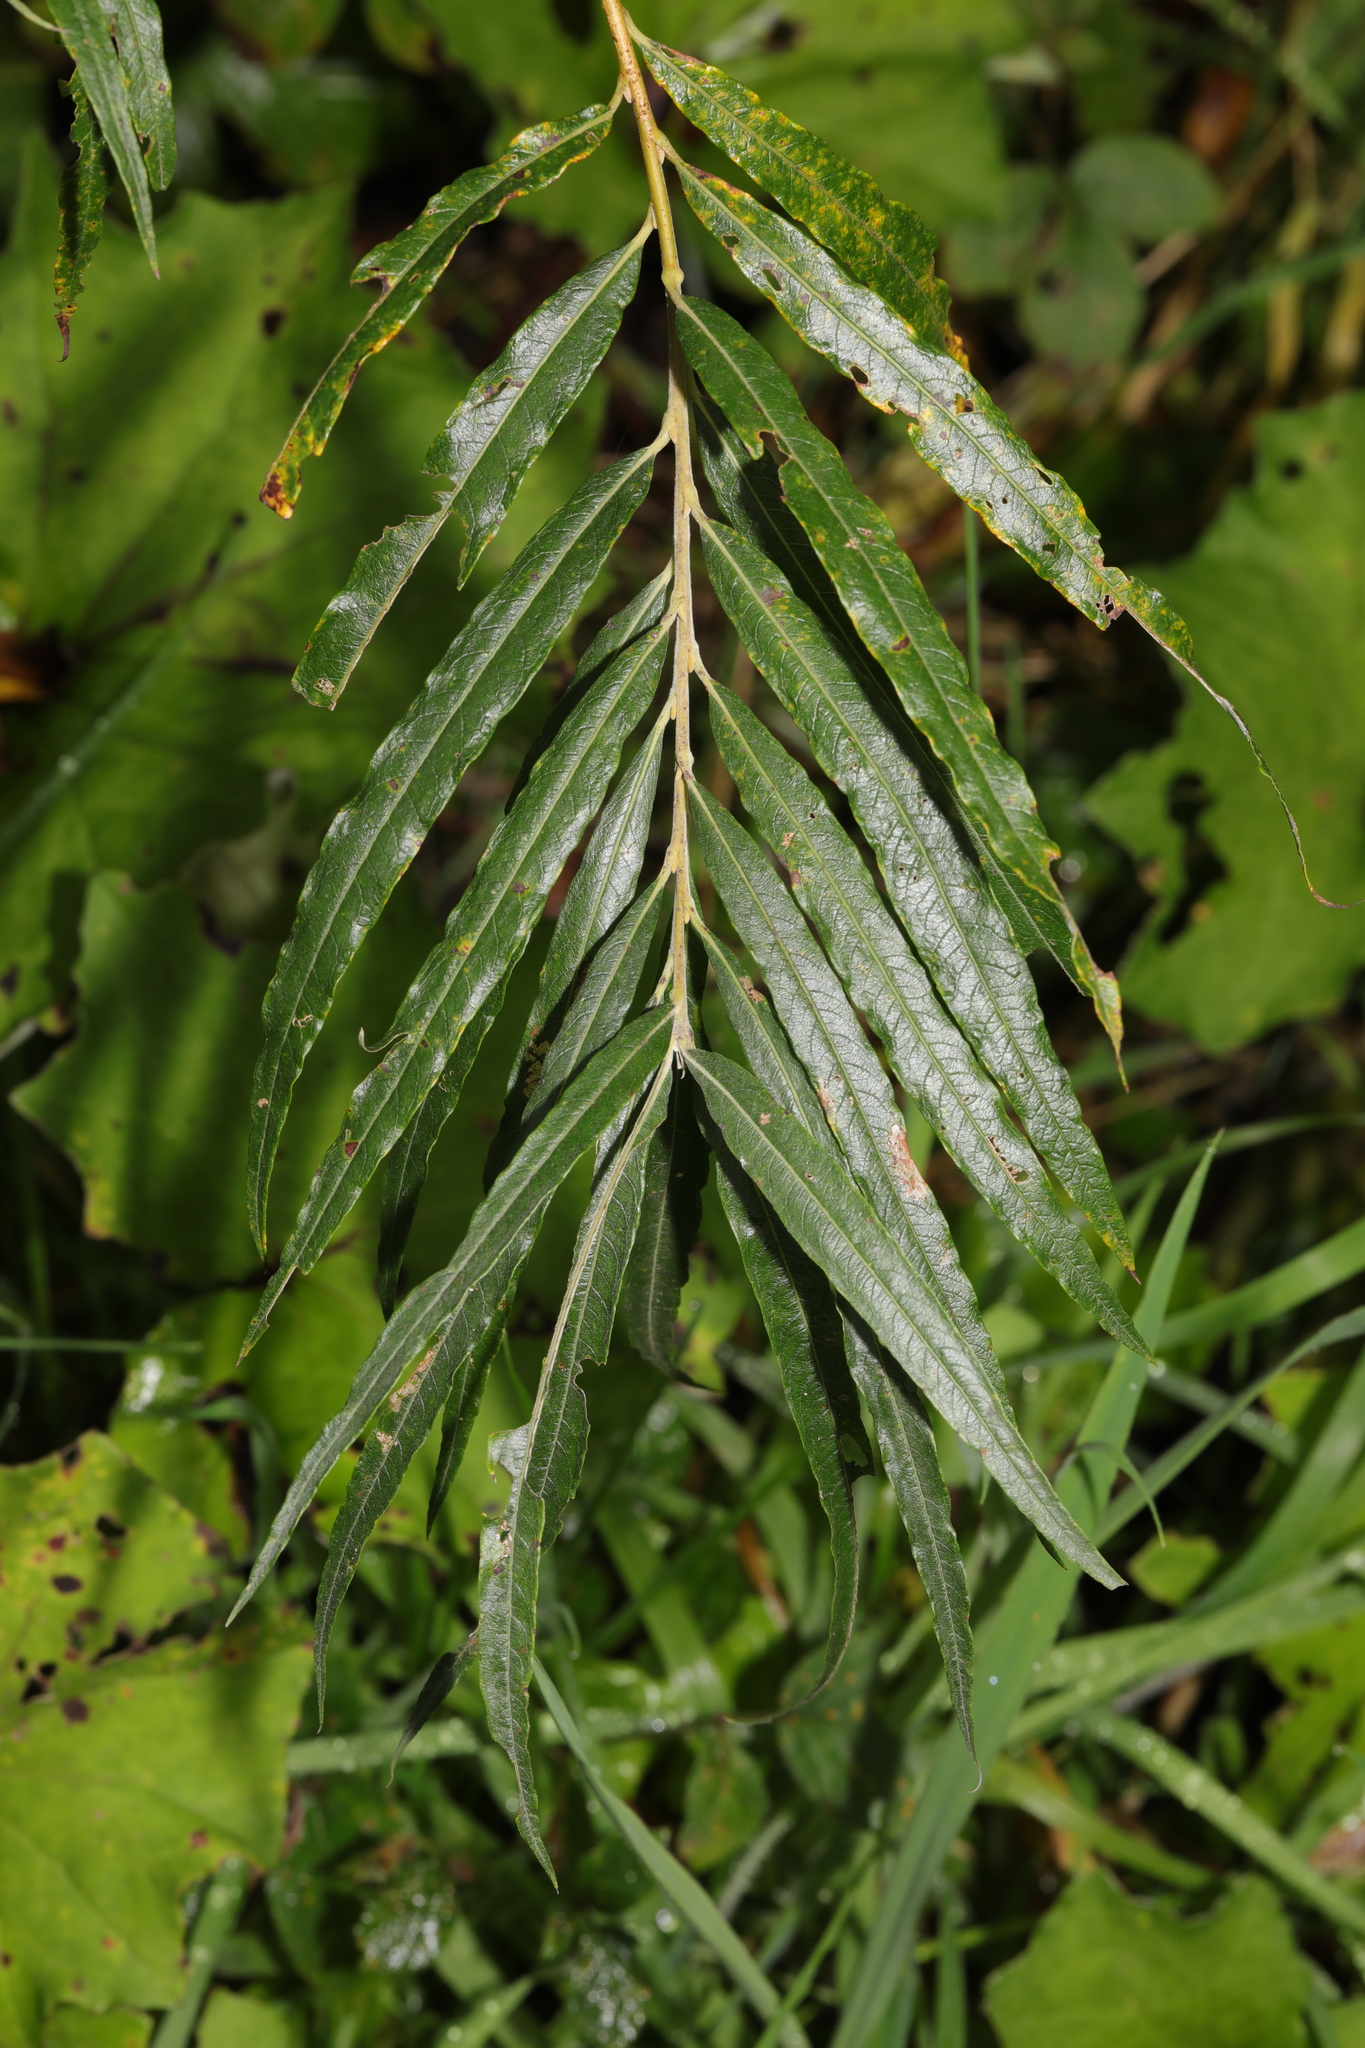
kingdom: Plantae
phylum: Tracheophyta
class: Magnoliopsida
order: Malpighiales
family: Salicaceae
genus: Salix
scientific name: Salix viminalis
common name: Osier
